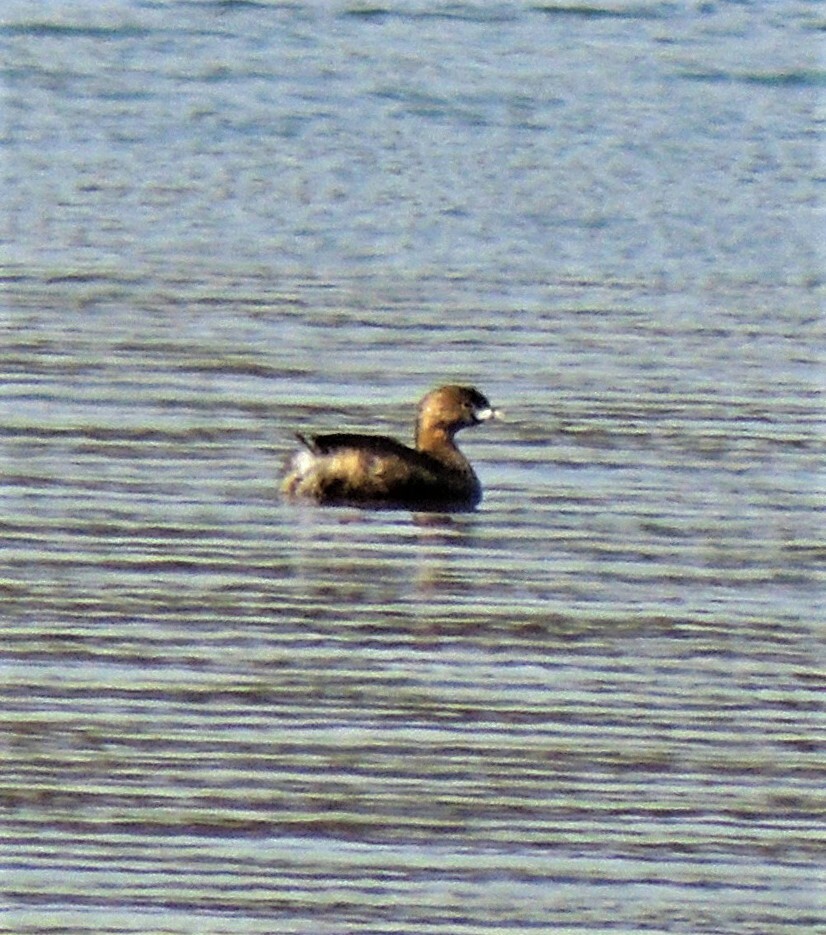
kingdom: Animalia
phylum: Chordata
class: Aves
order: Podicipediformes
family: Podicipedidae
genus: Podilymbus
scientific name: Podilymbus podiceps
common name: Pied-billed grebe
